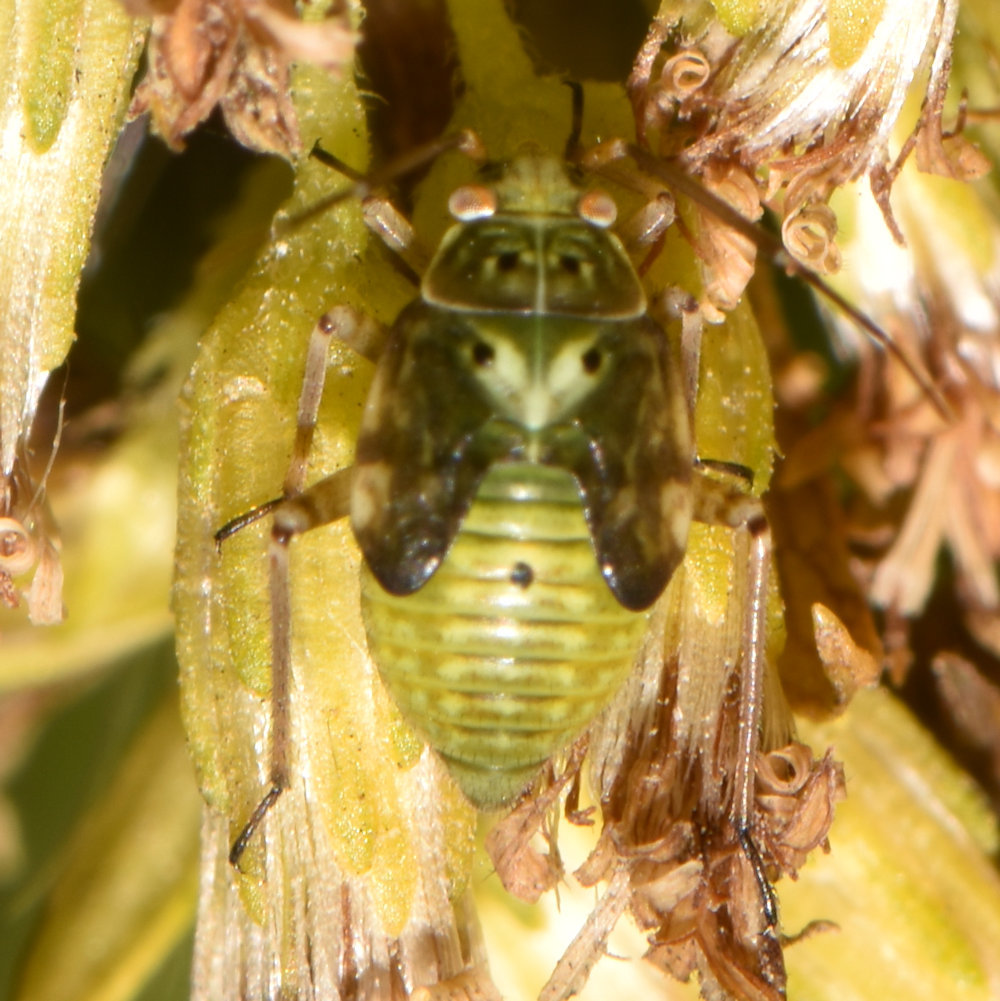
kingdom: Animalia
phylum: Arthropoda
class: Insecta
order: Hemiptera
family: Miridae
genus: Lygus
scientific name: Lygus lineolaris
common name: North american tarnished plant bug
